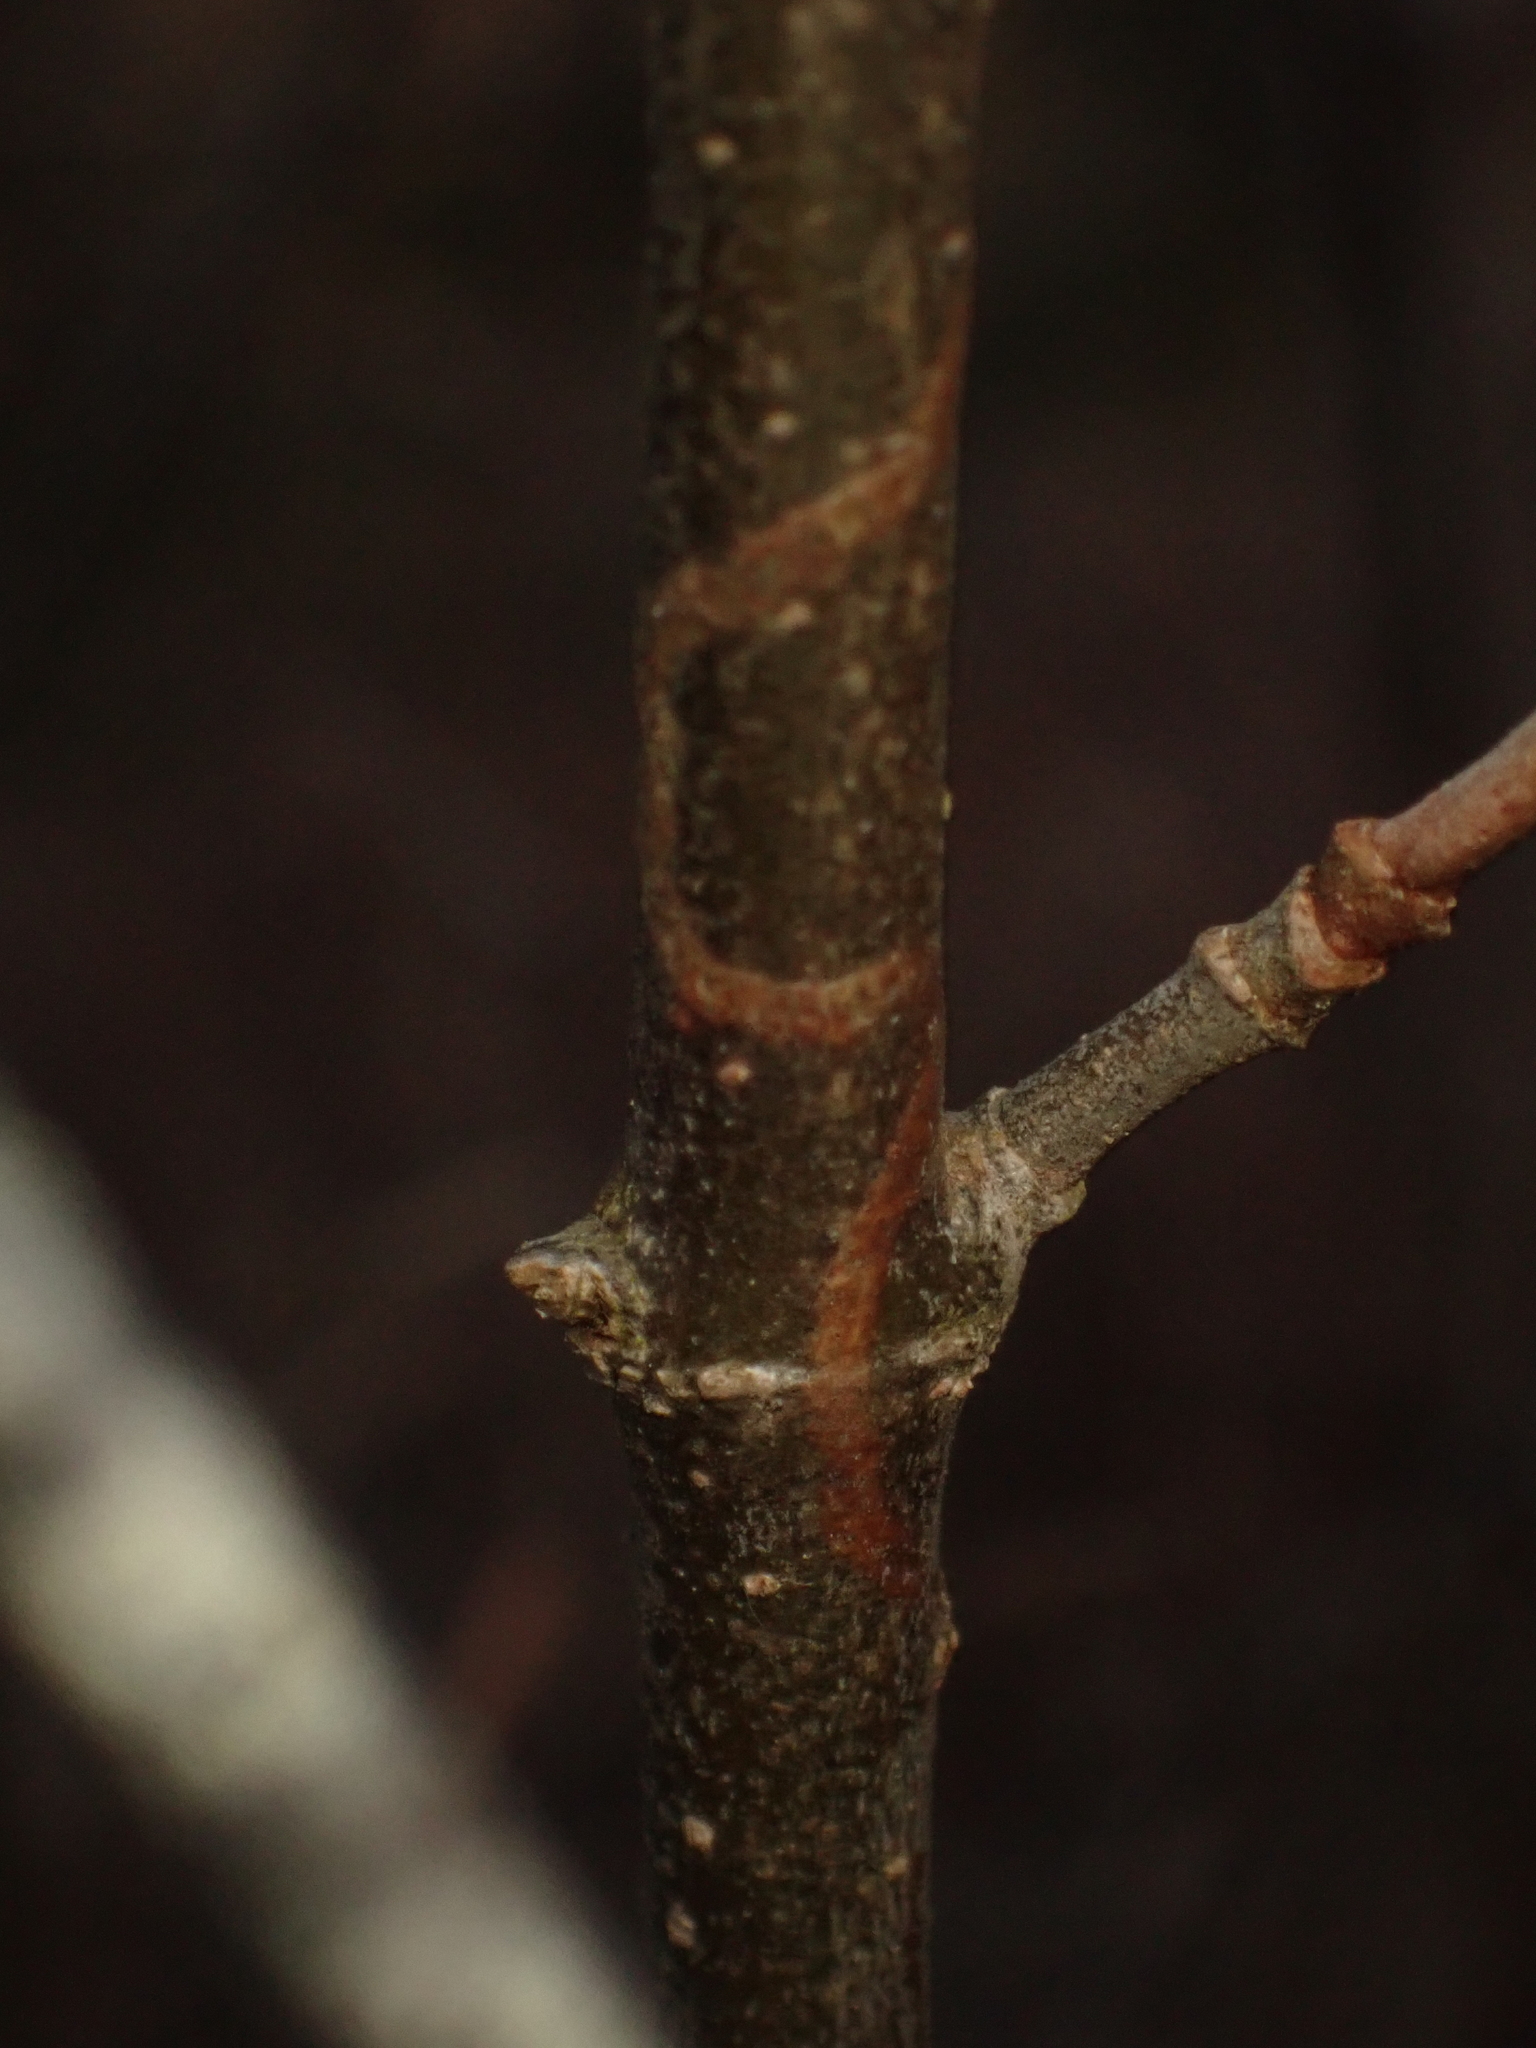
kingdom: Animalia
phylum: Arthropoda
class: Insecta
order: Lepidoptera
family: Gracillariidae
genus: Marmara
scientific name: Marmara viburnella
